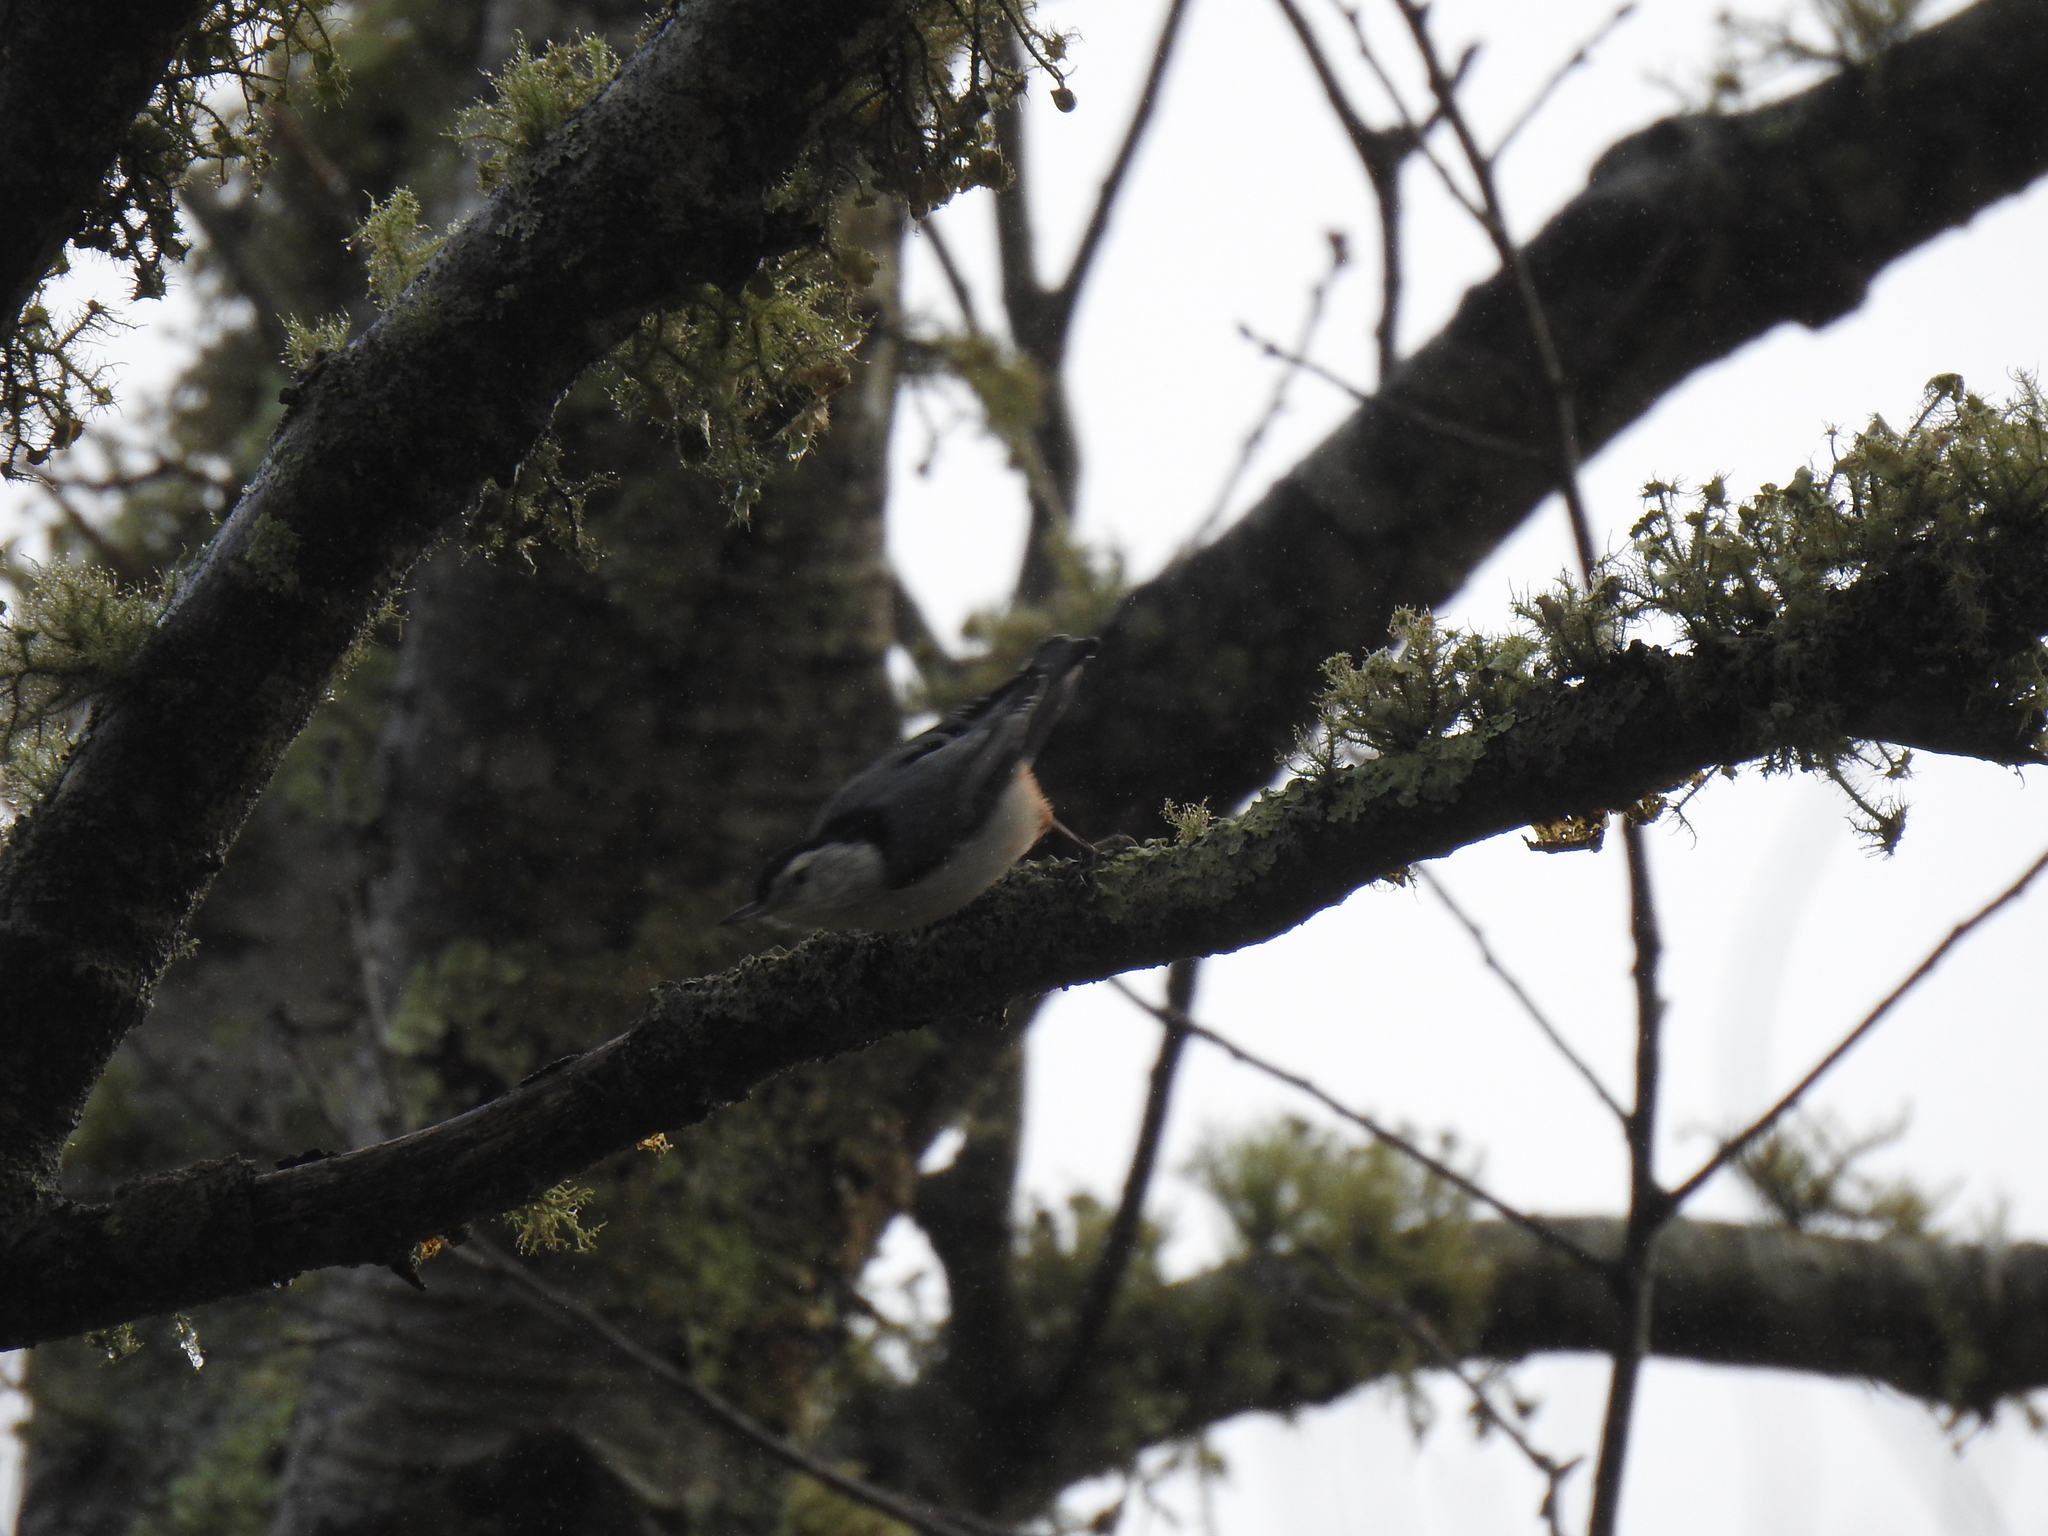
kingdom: Animalia
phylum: Chordata
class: Aves
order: Passeriformes
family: Sittidae
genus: Sitta
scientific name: Sitta carolinensis
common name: White-breasted nuthatch
